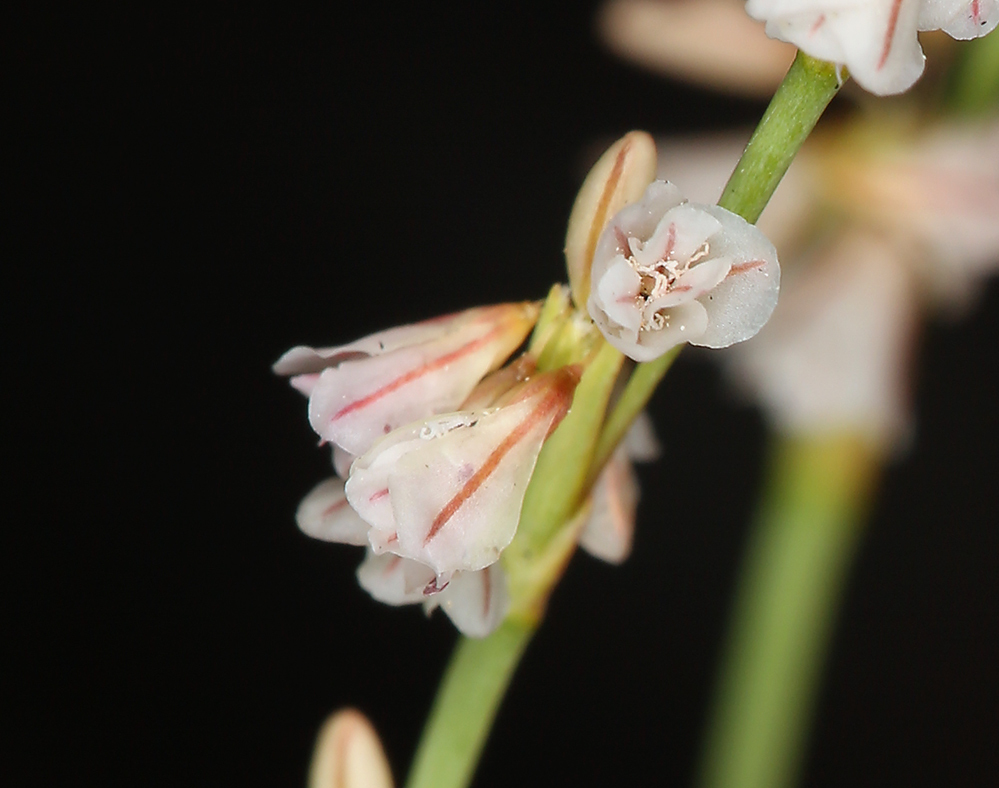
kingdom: Plantae
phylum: Tracheophyta
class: Magnoliopsida
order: Caryophyllales
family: Polygonaceae
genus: Eriogonum
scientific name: Eriogonum luteolum
